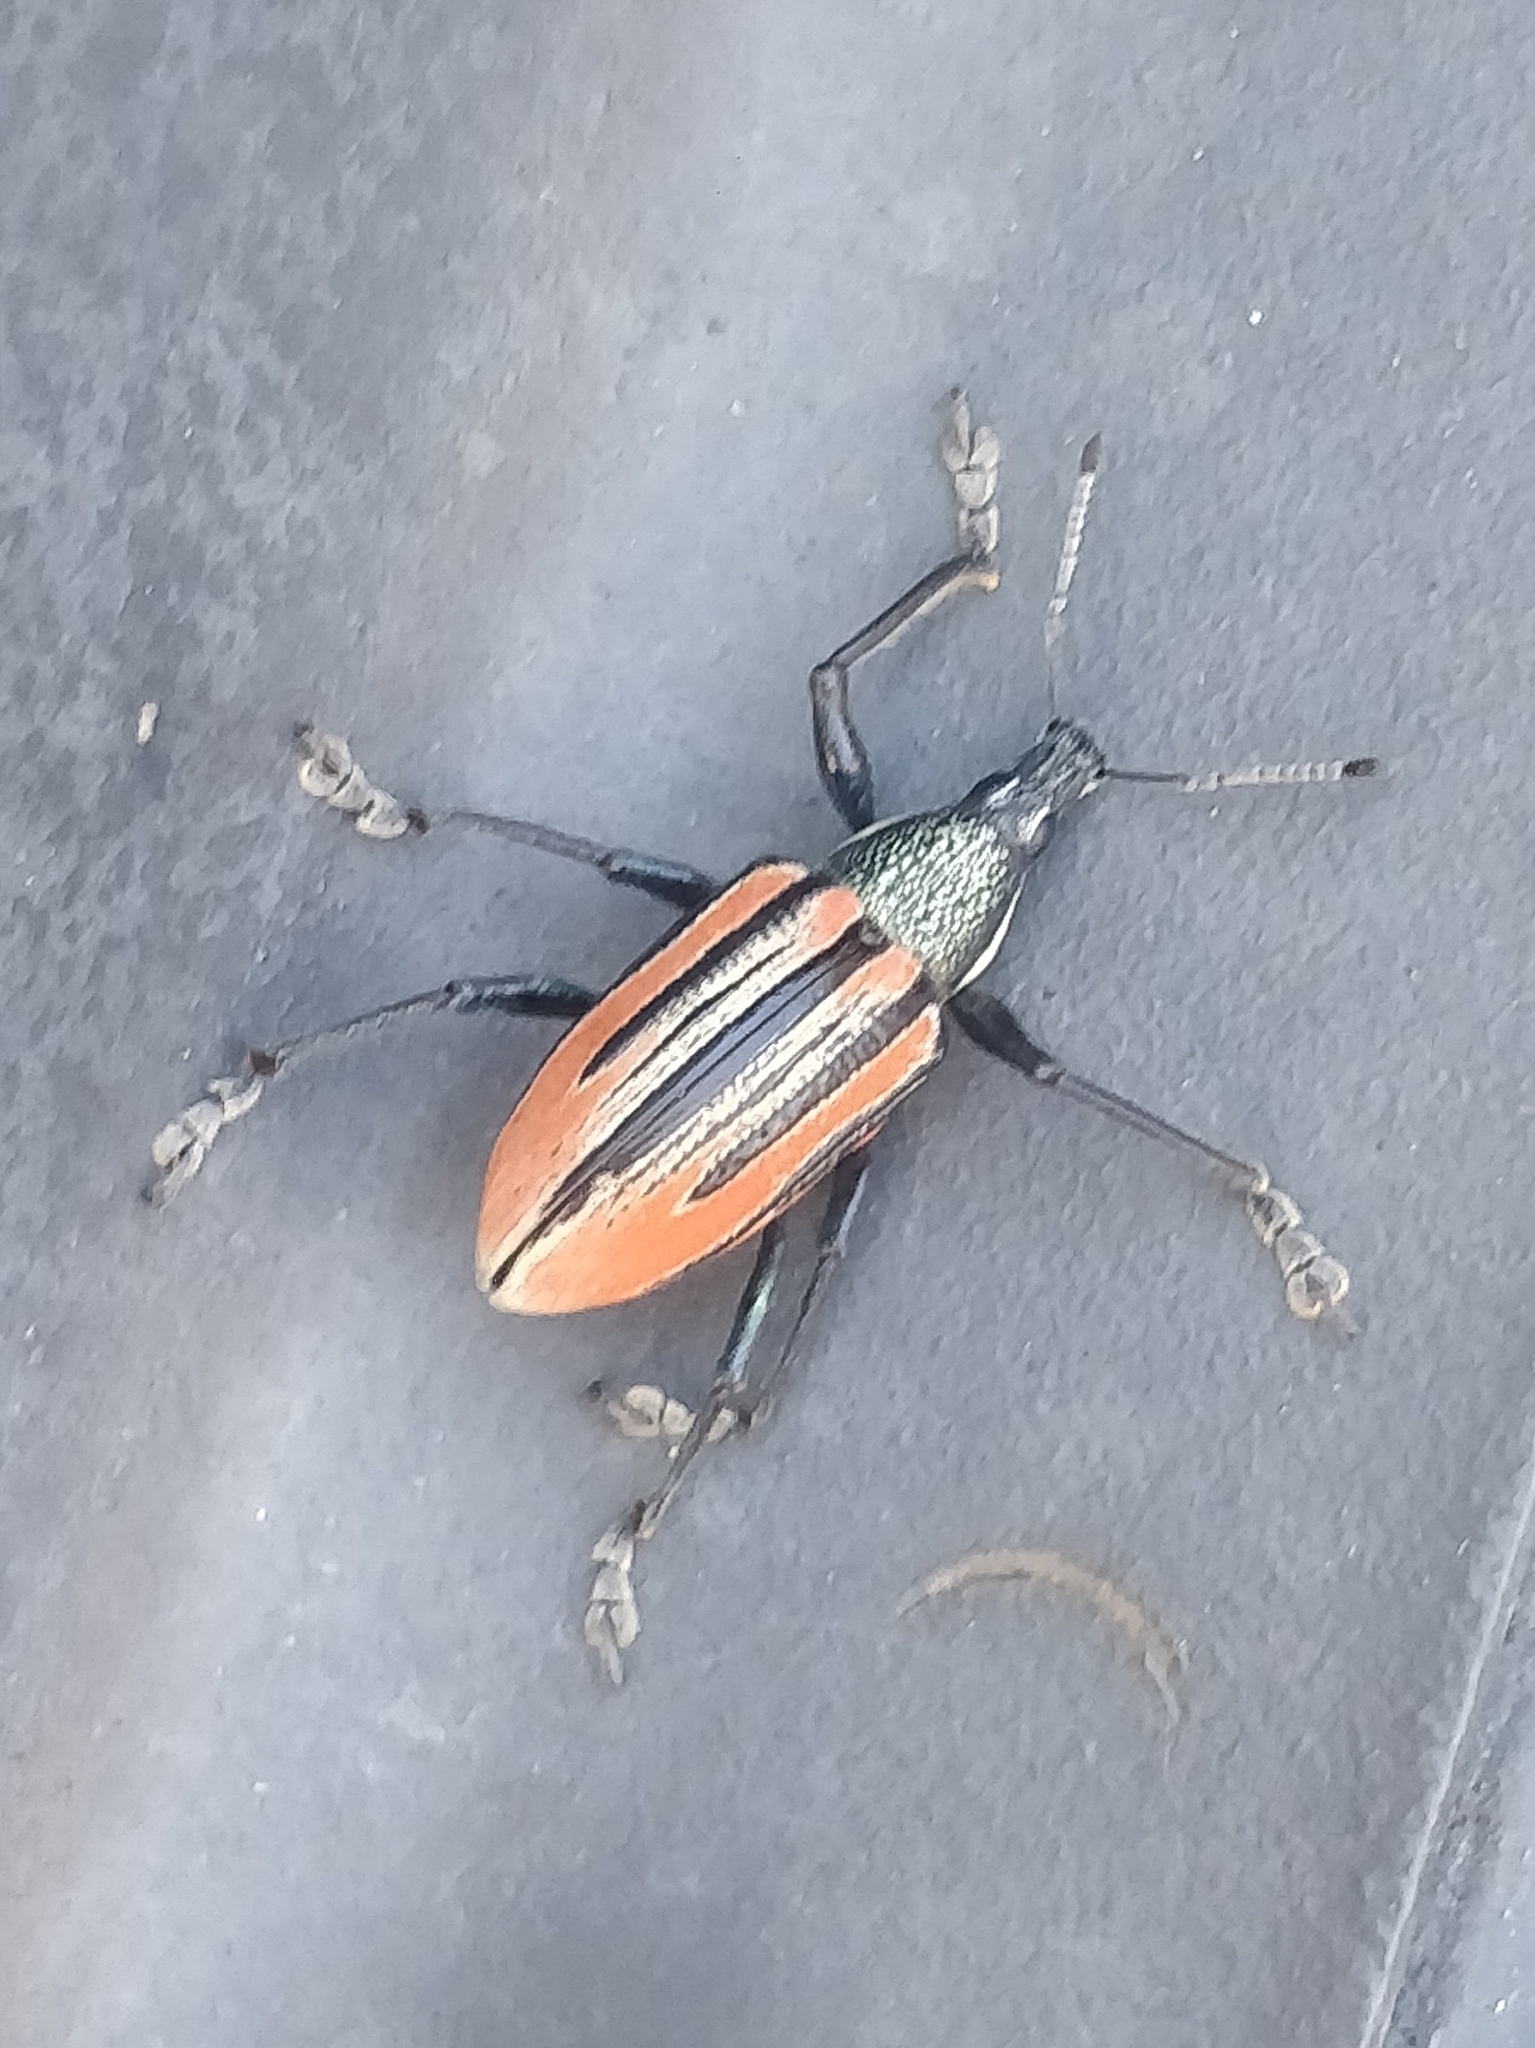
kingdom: Animalia
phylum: Arthropoda
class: Insecta
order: Coleoptera
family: Curculionidae
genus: Diaprepes
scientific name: Diaprepes abbreviatus
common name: Root weevil
